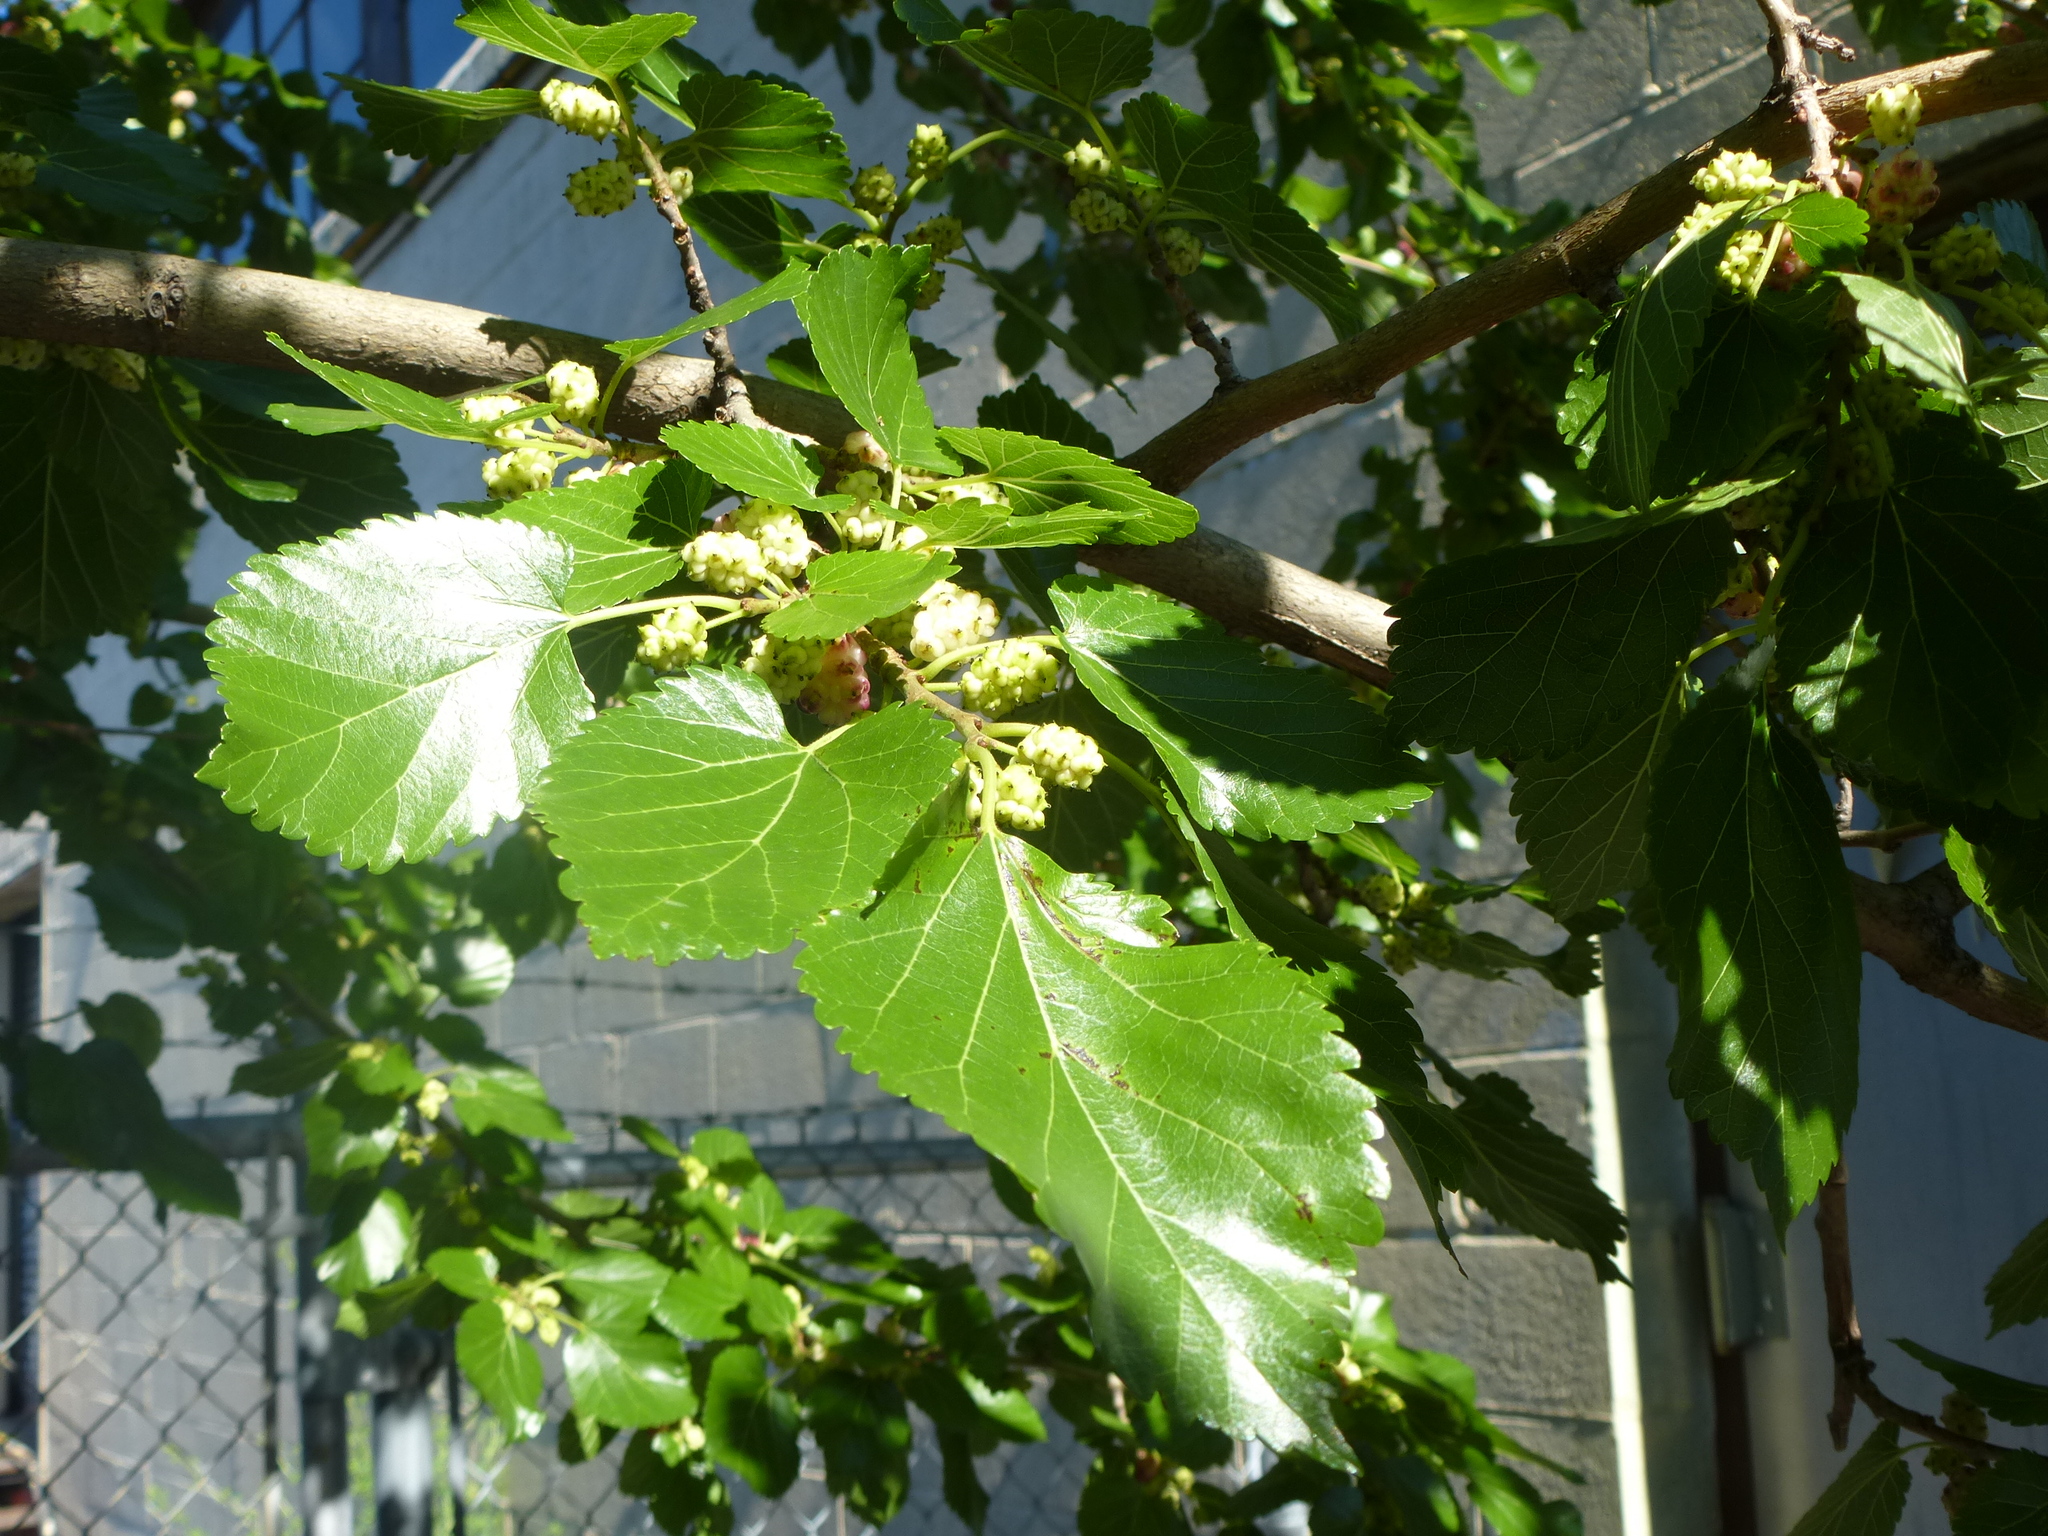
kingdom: Plantae
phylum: Tracheophyta
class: Magnoliopsida
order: Rosales
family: Moraceae
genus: Morus
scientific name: Morus alba
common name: White mulberry
